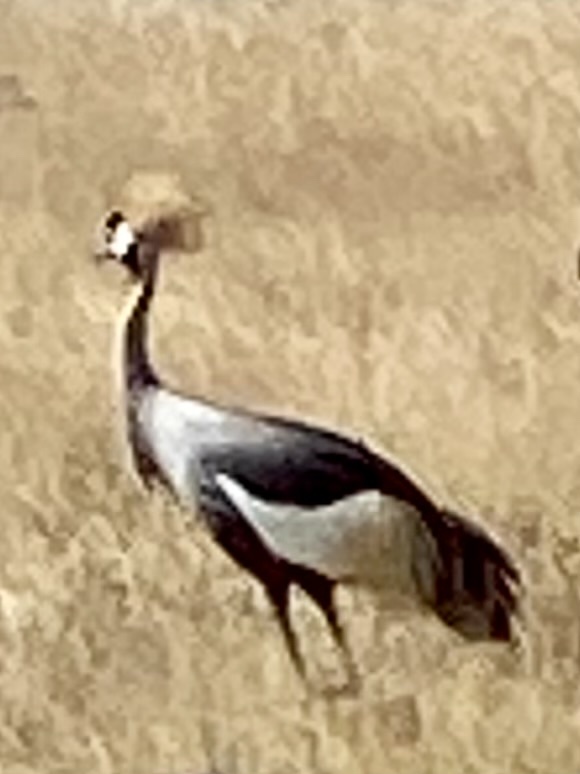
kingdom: Animalia
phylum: Chordata
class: Aves
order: Gruiformes
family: Gruidae
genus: Balearica
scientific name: Balearica regulorum
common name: Grey crowned crane
